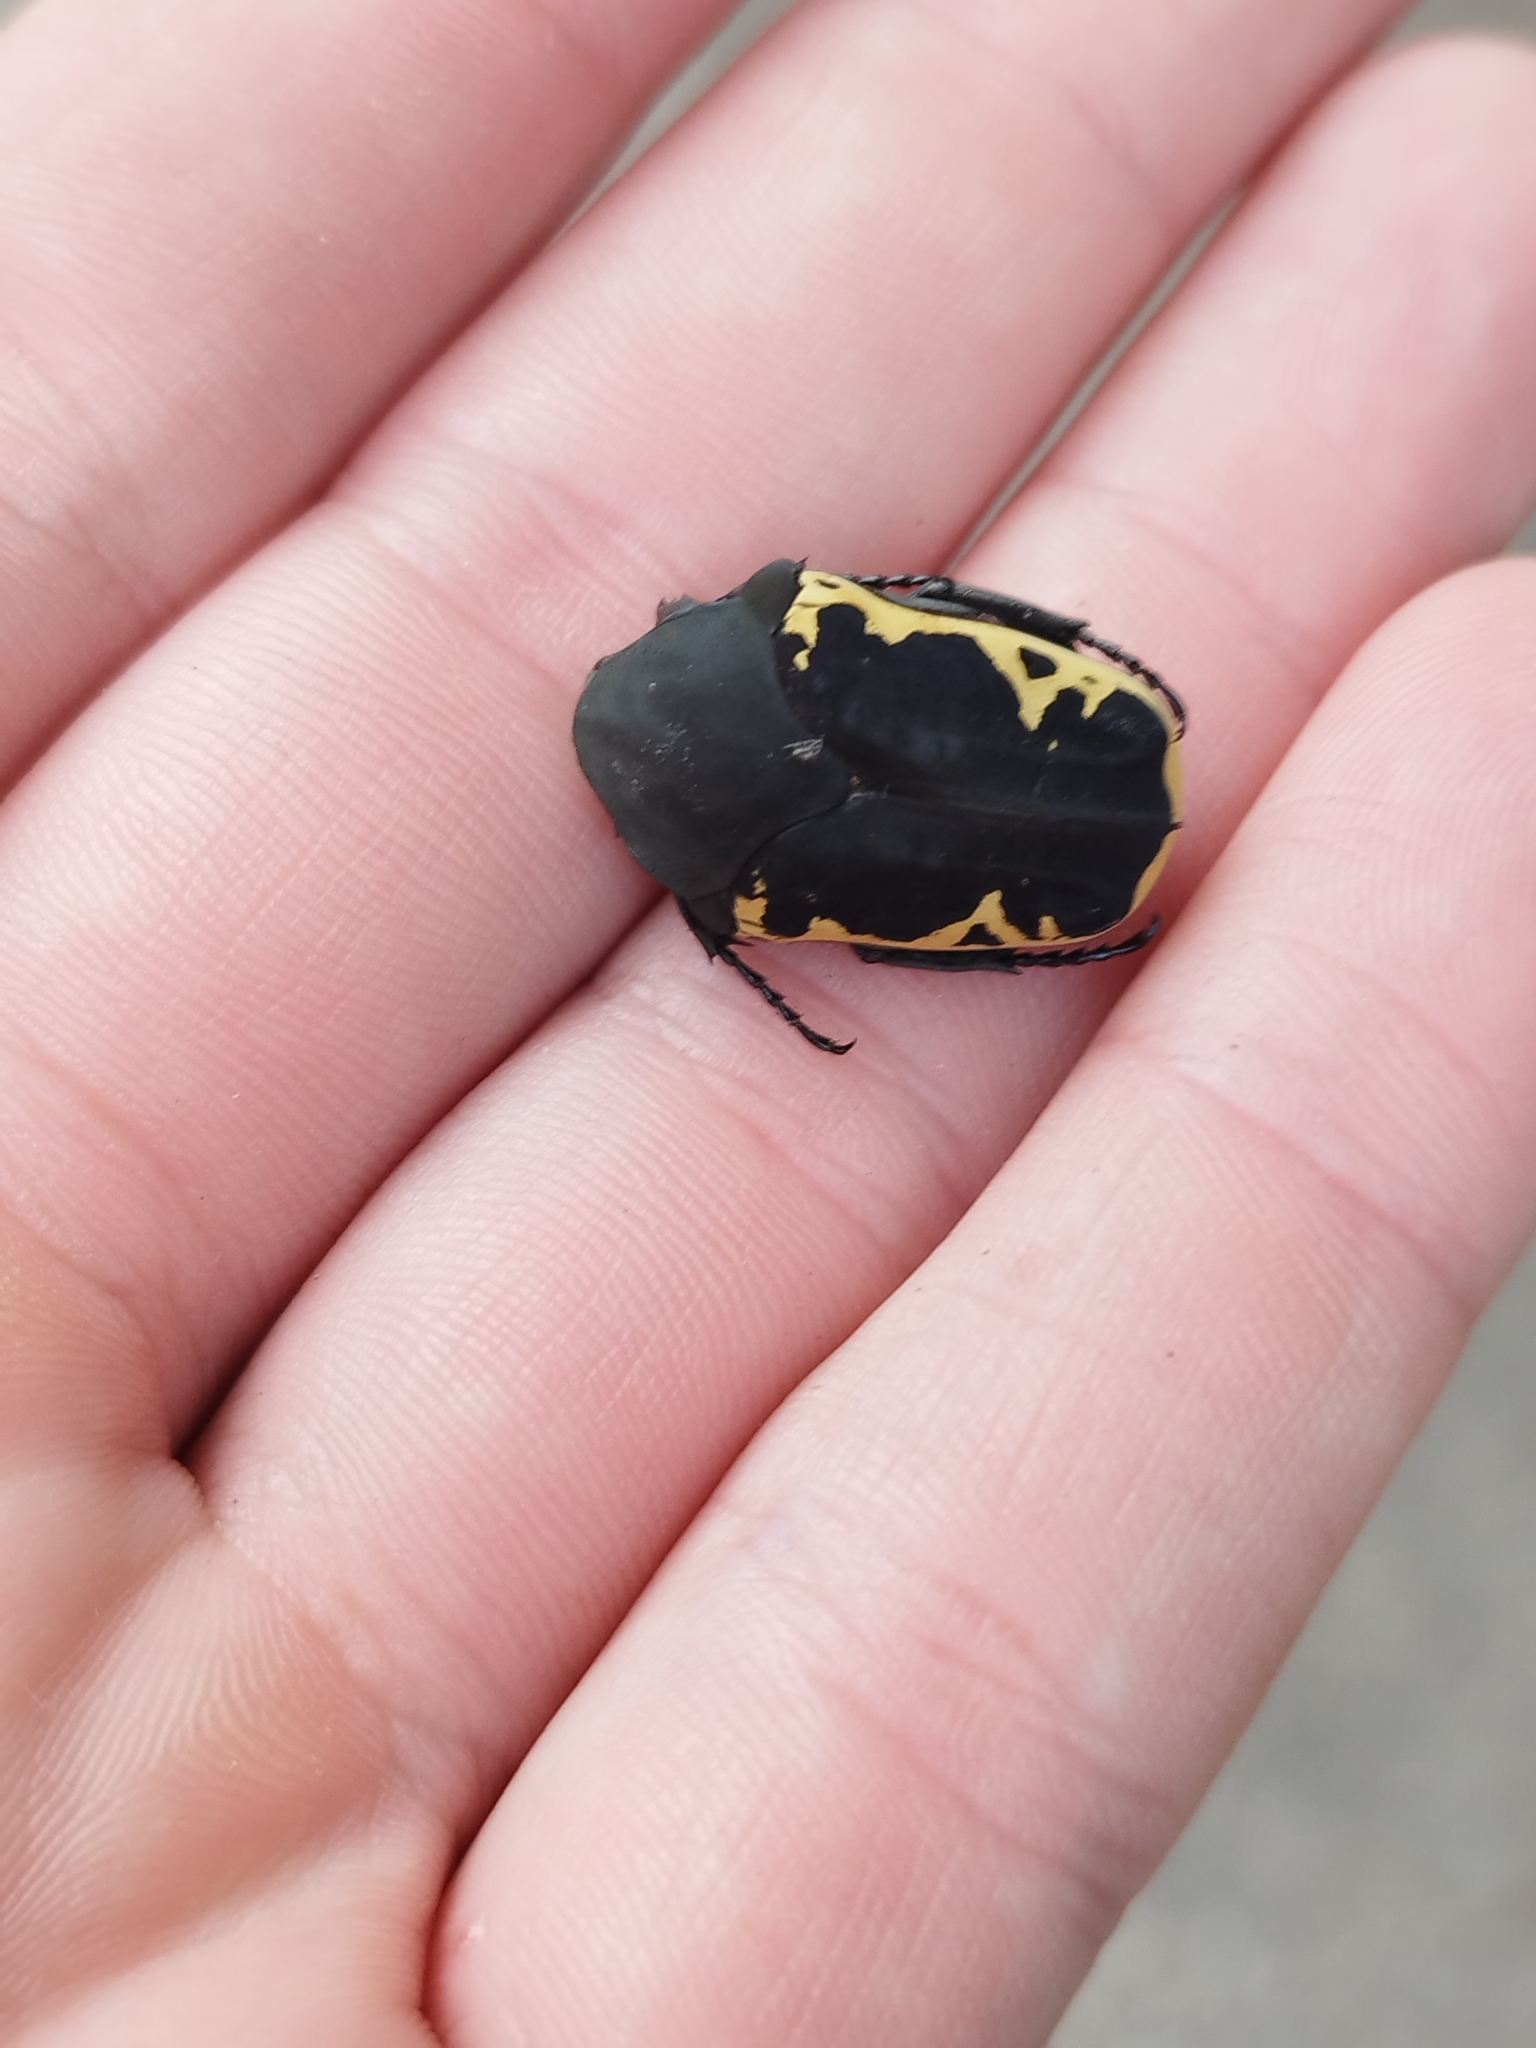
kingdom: Animalia
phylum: Arthropoda
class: Insecta
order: Coleoptera
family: Scarabaeidae
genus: Gymnetis
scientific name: Gymnetis pudibunda
